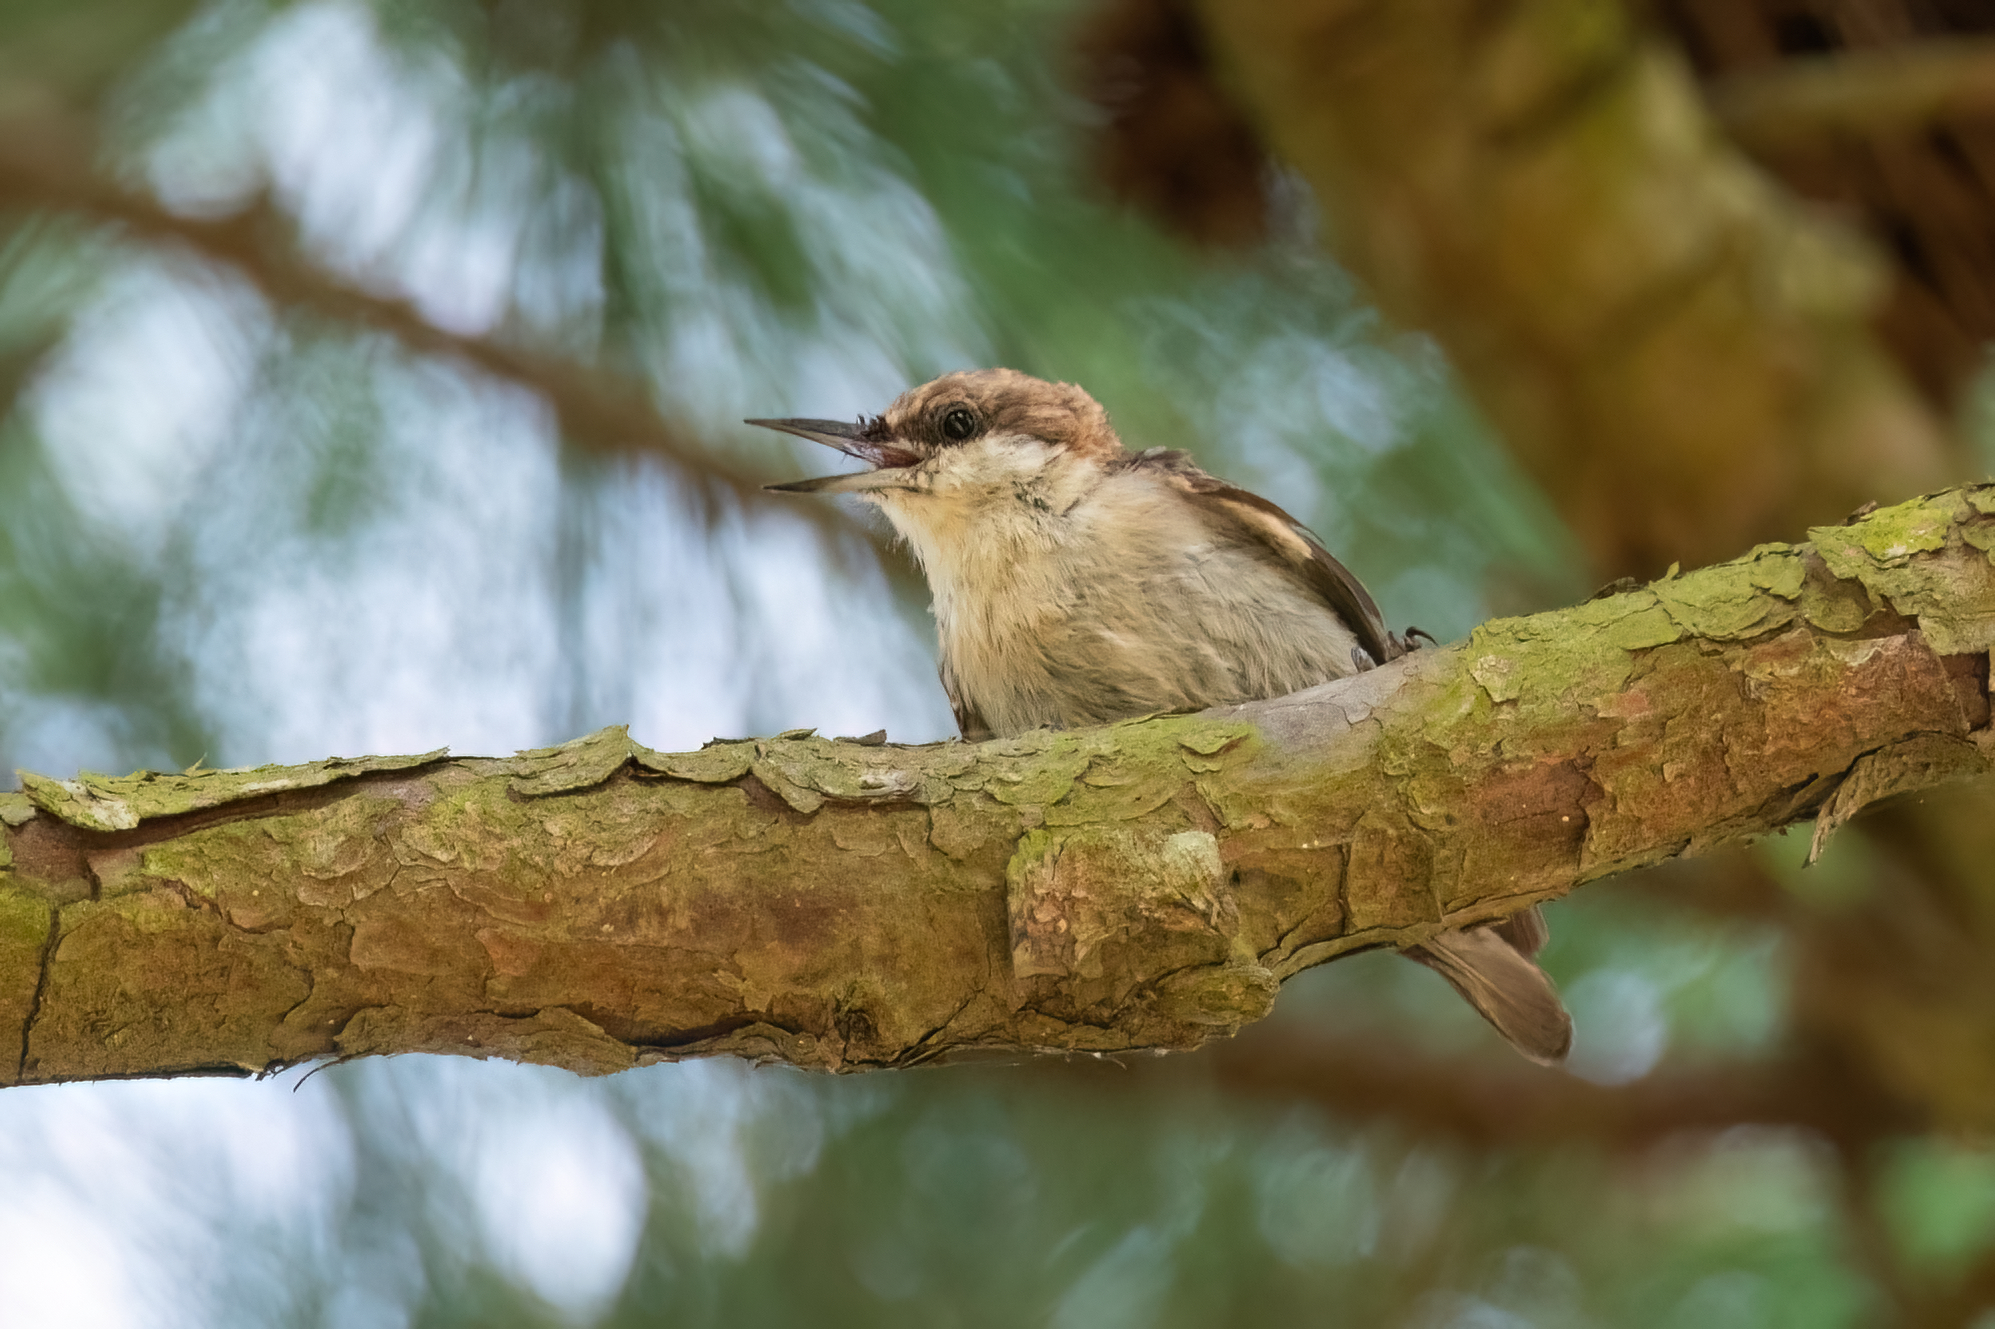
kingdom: Animalia
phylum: Chordata
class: Aves
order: Passeriformes
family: Sittidae
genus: Sitta
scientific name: Sitta pusilla
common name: Brown-headed nuthatch
